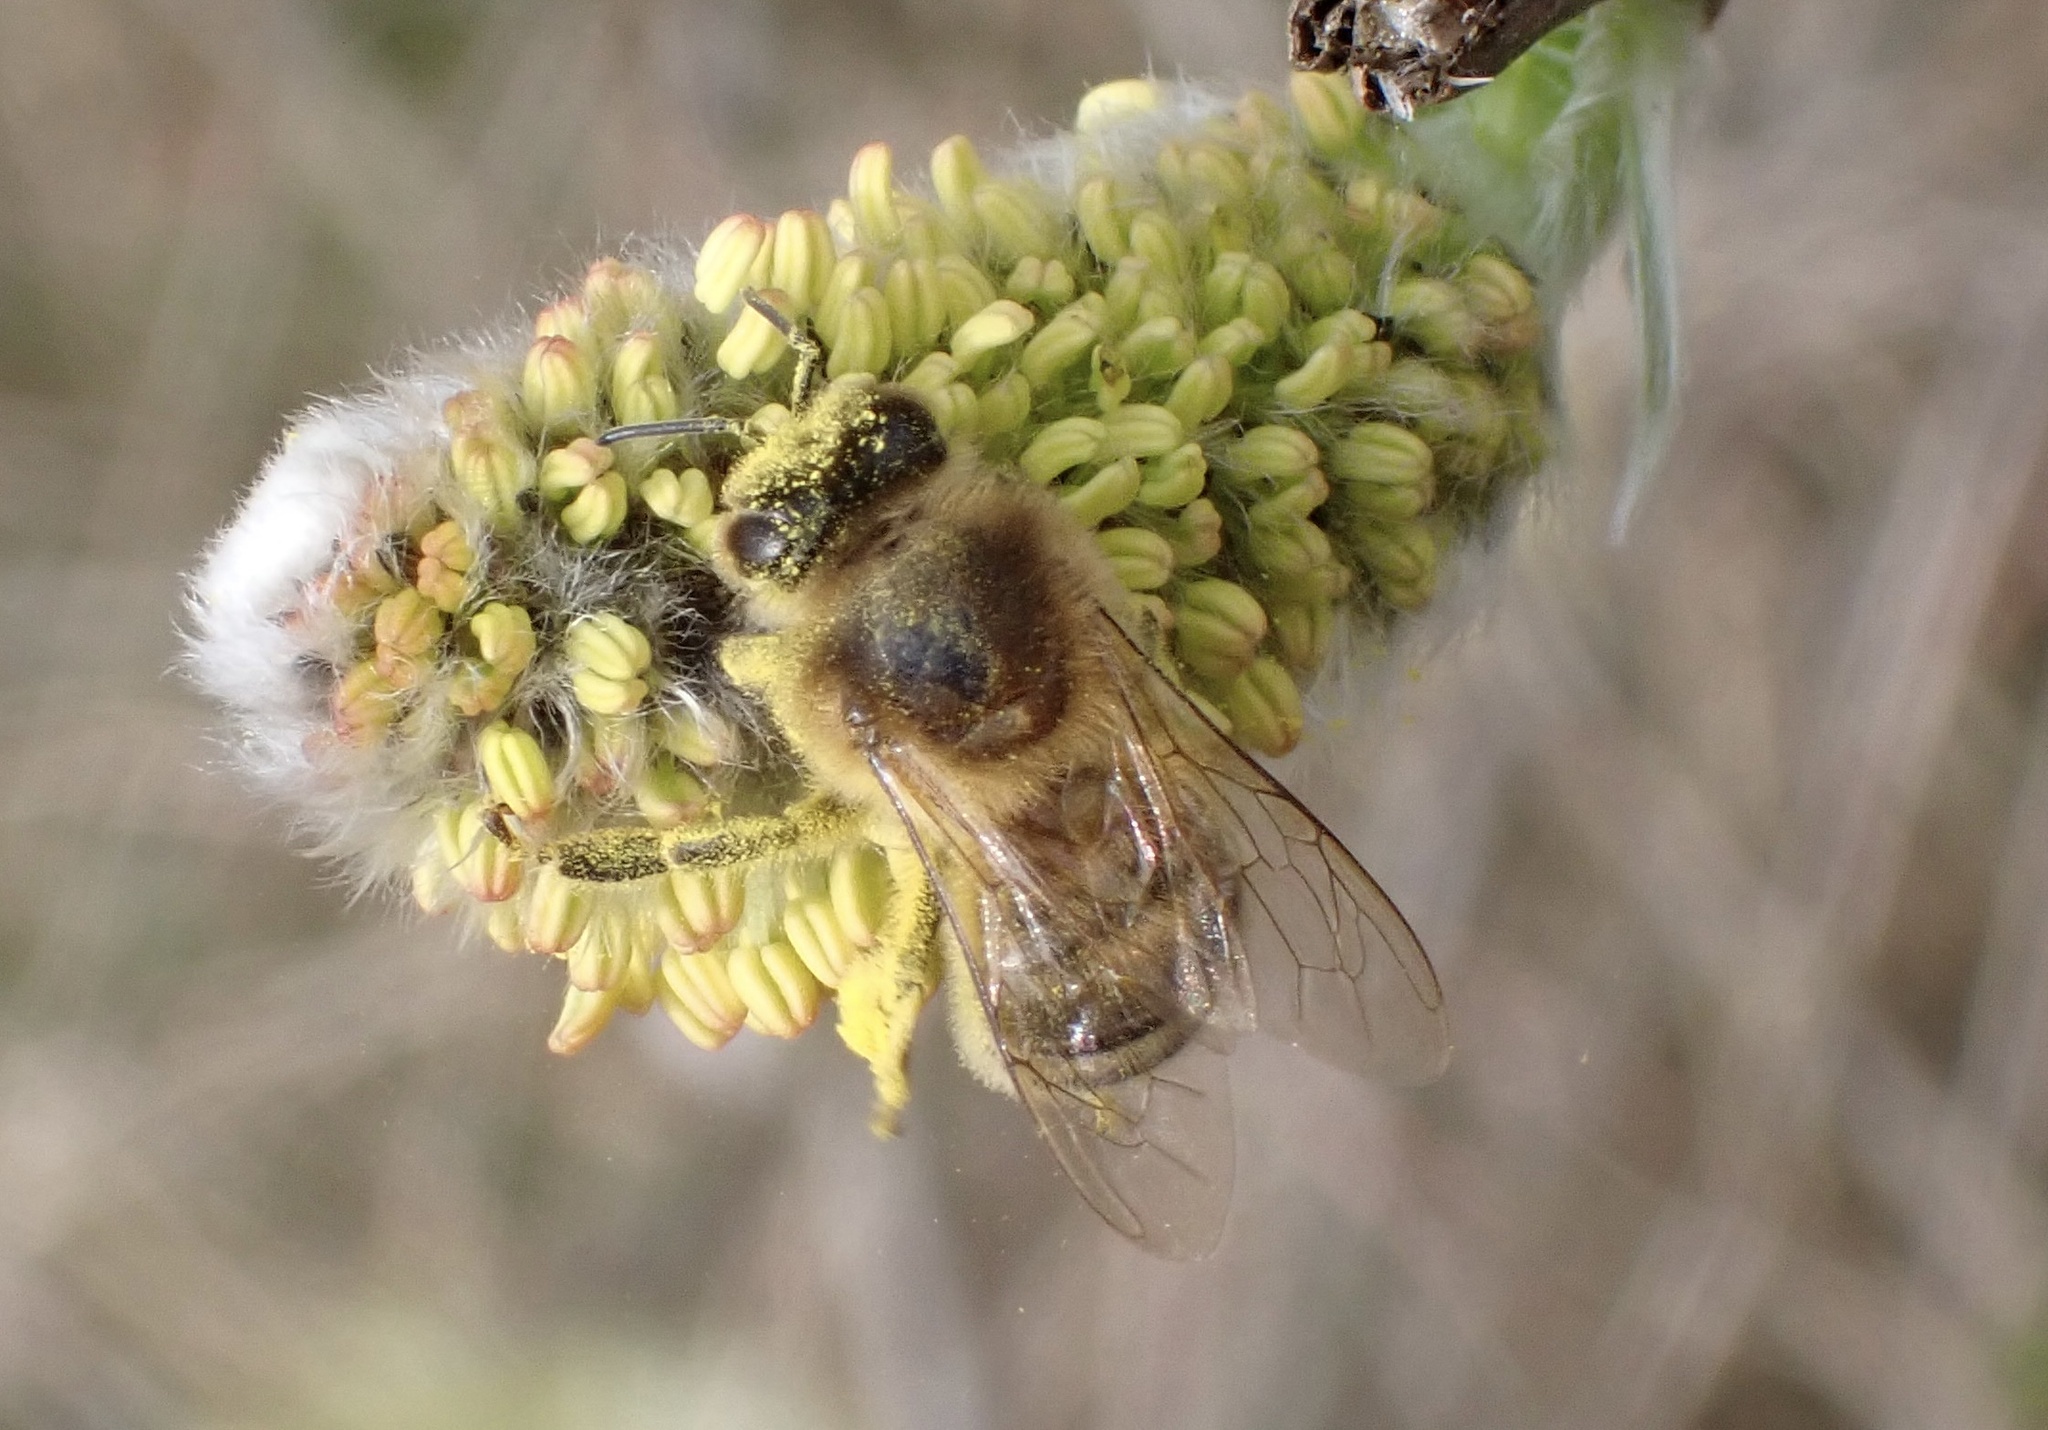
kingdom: Animalia
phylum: Arthropoda
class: Insecta
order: Hymenoptera
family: Apidae
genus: Apis
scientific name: Apis mellifera
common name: Honey bee
